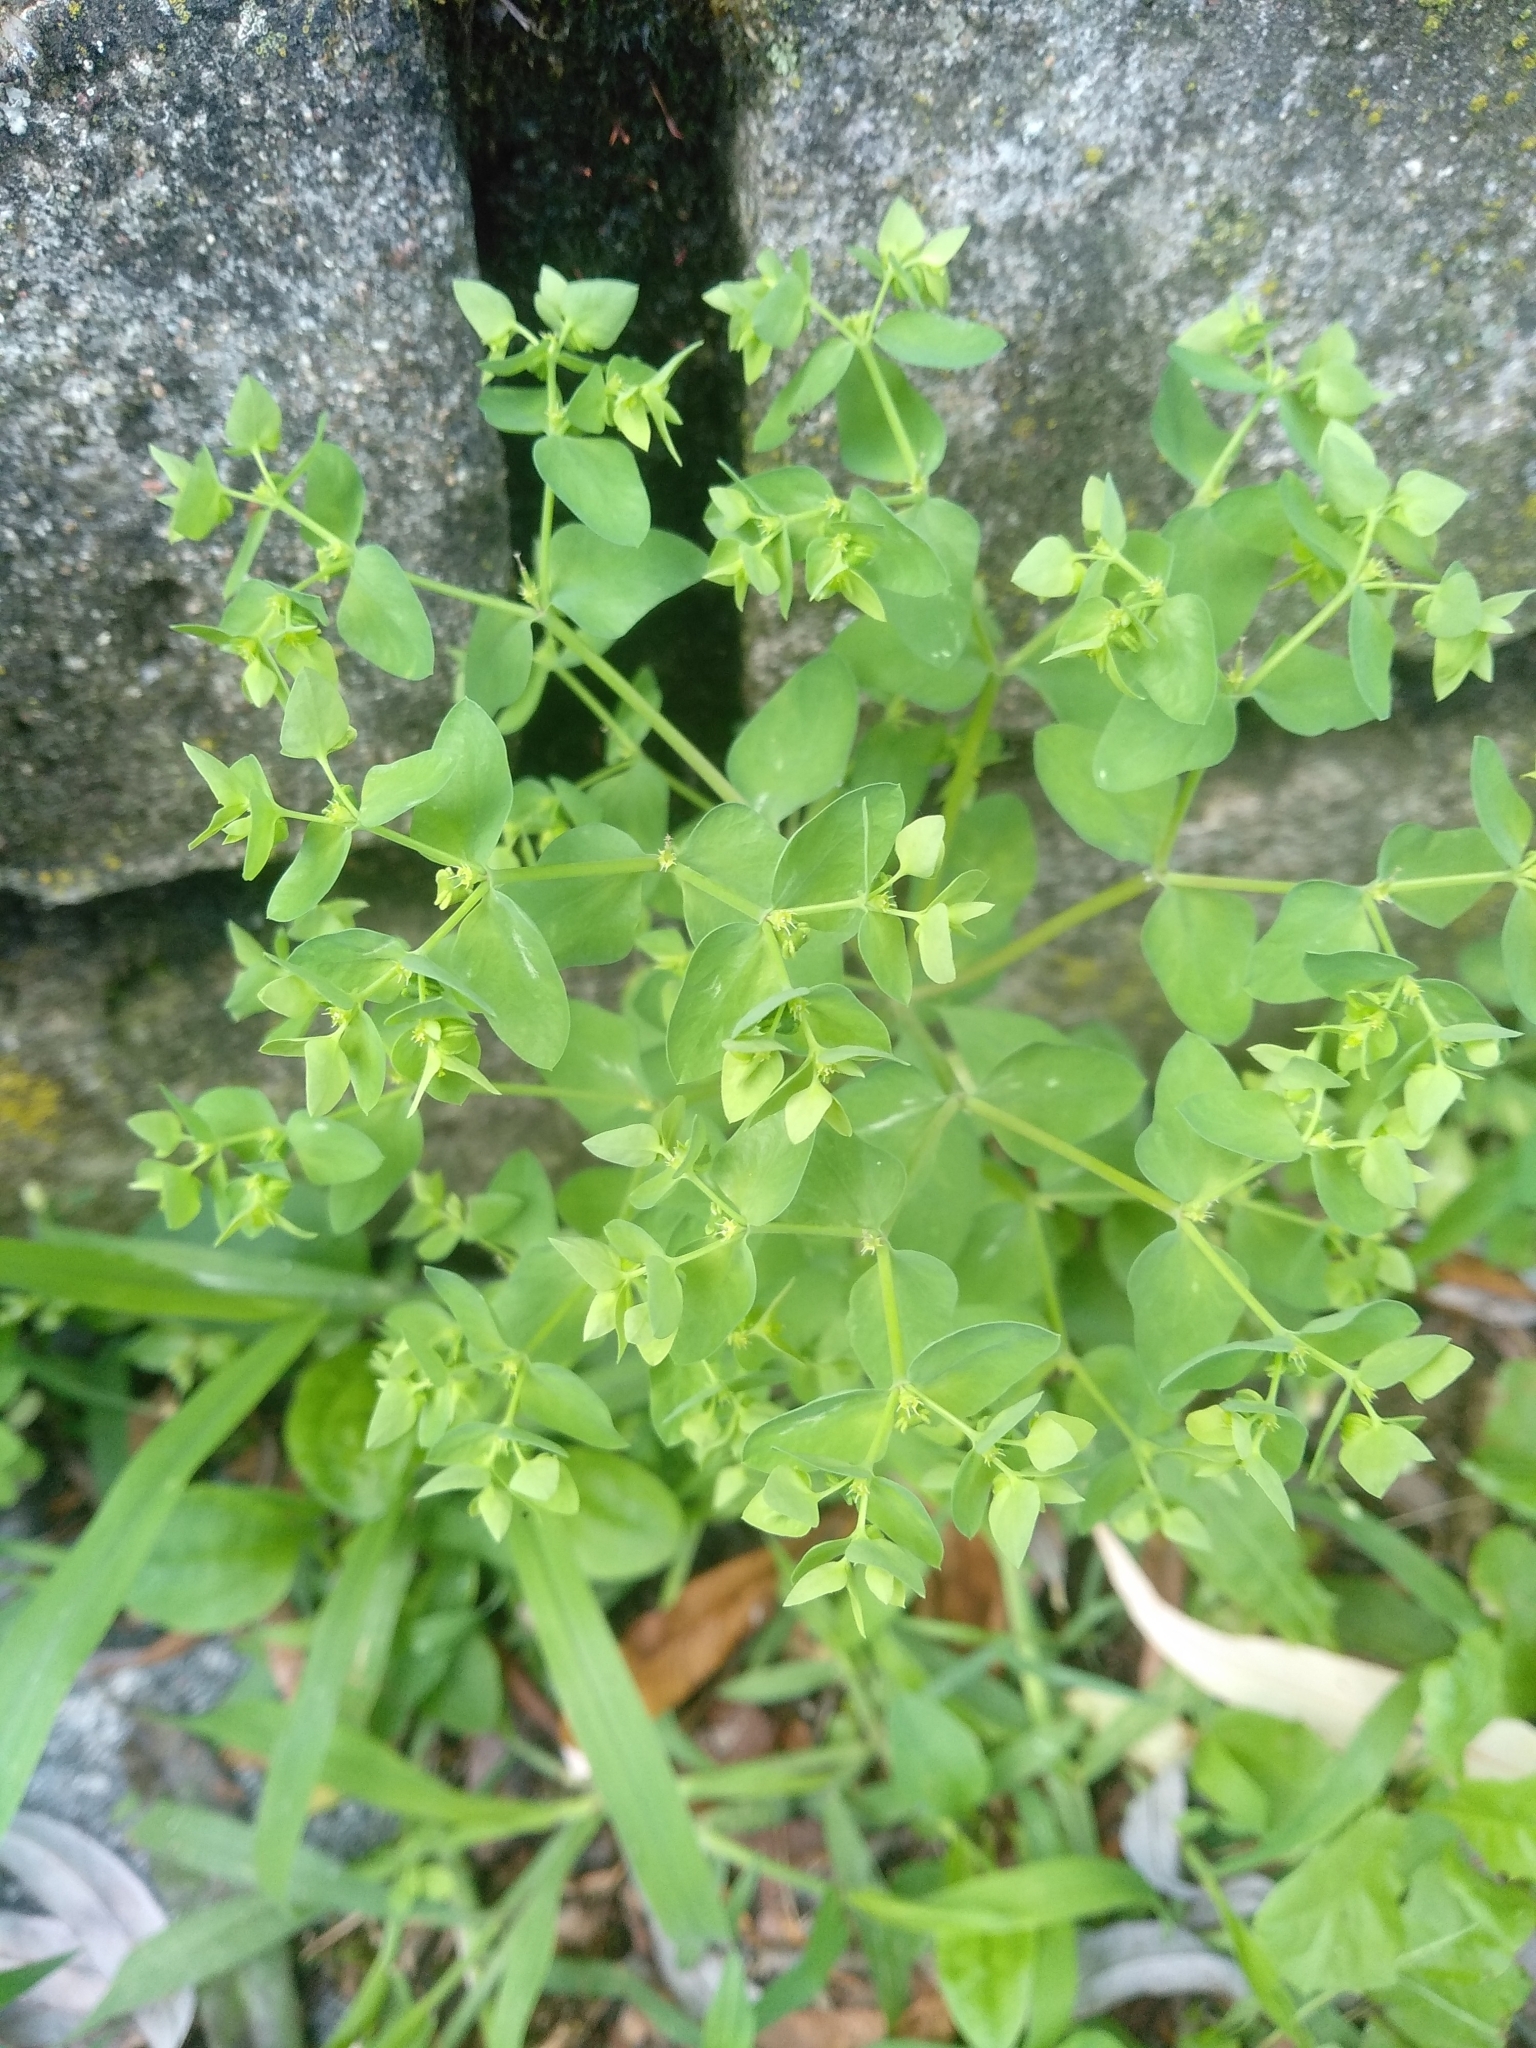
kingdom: Plantae
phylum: Tracheophyta
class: Magnoliopsida
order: Malpighiales
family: Euphorbiaceae
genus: Euphorbia
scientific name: Euphorbia peplus
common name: Petty spurge
